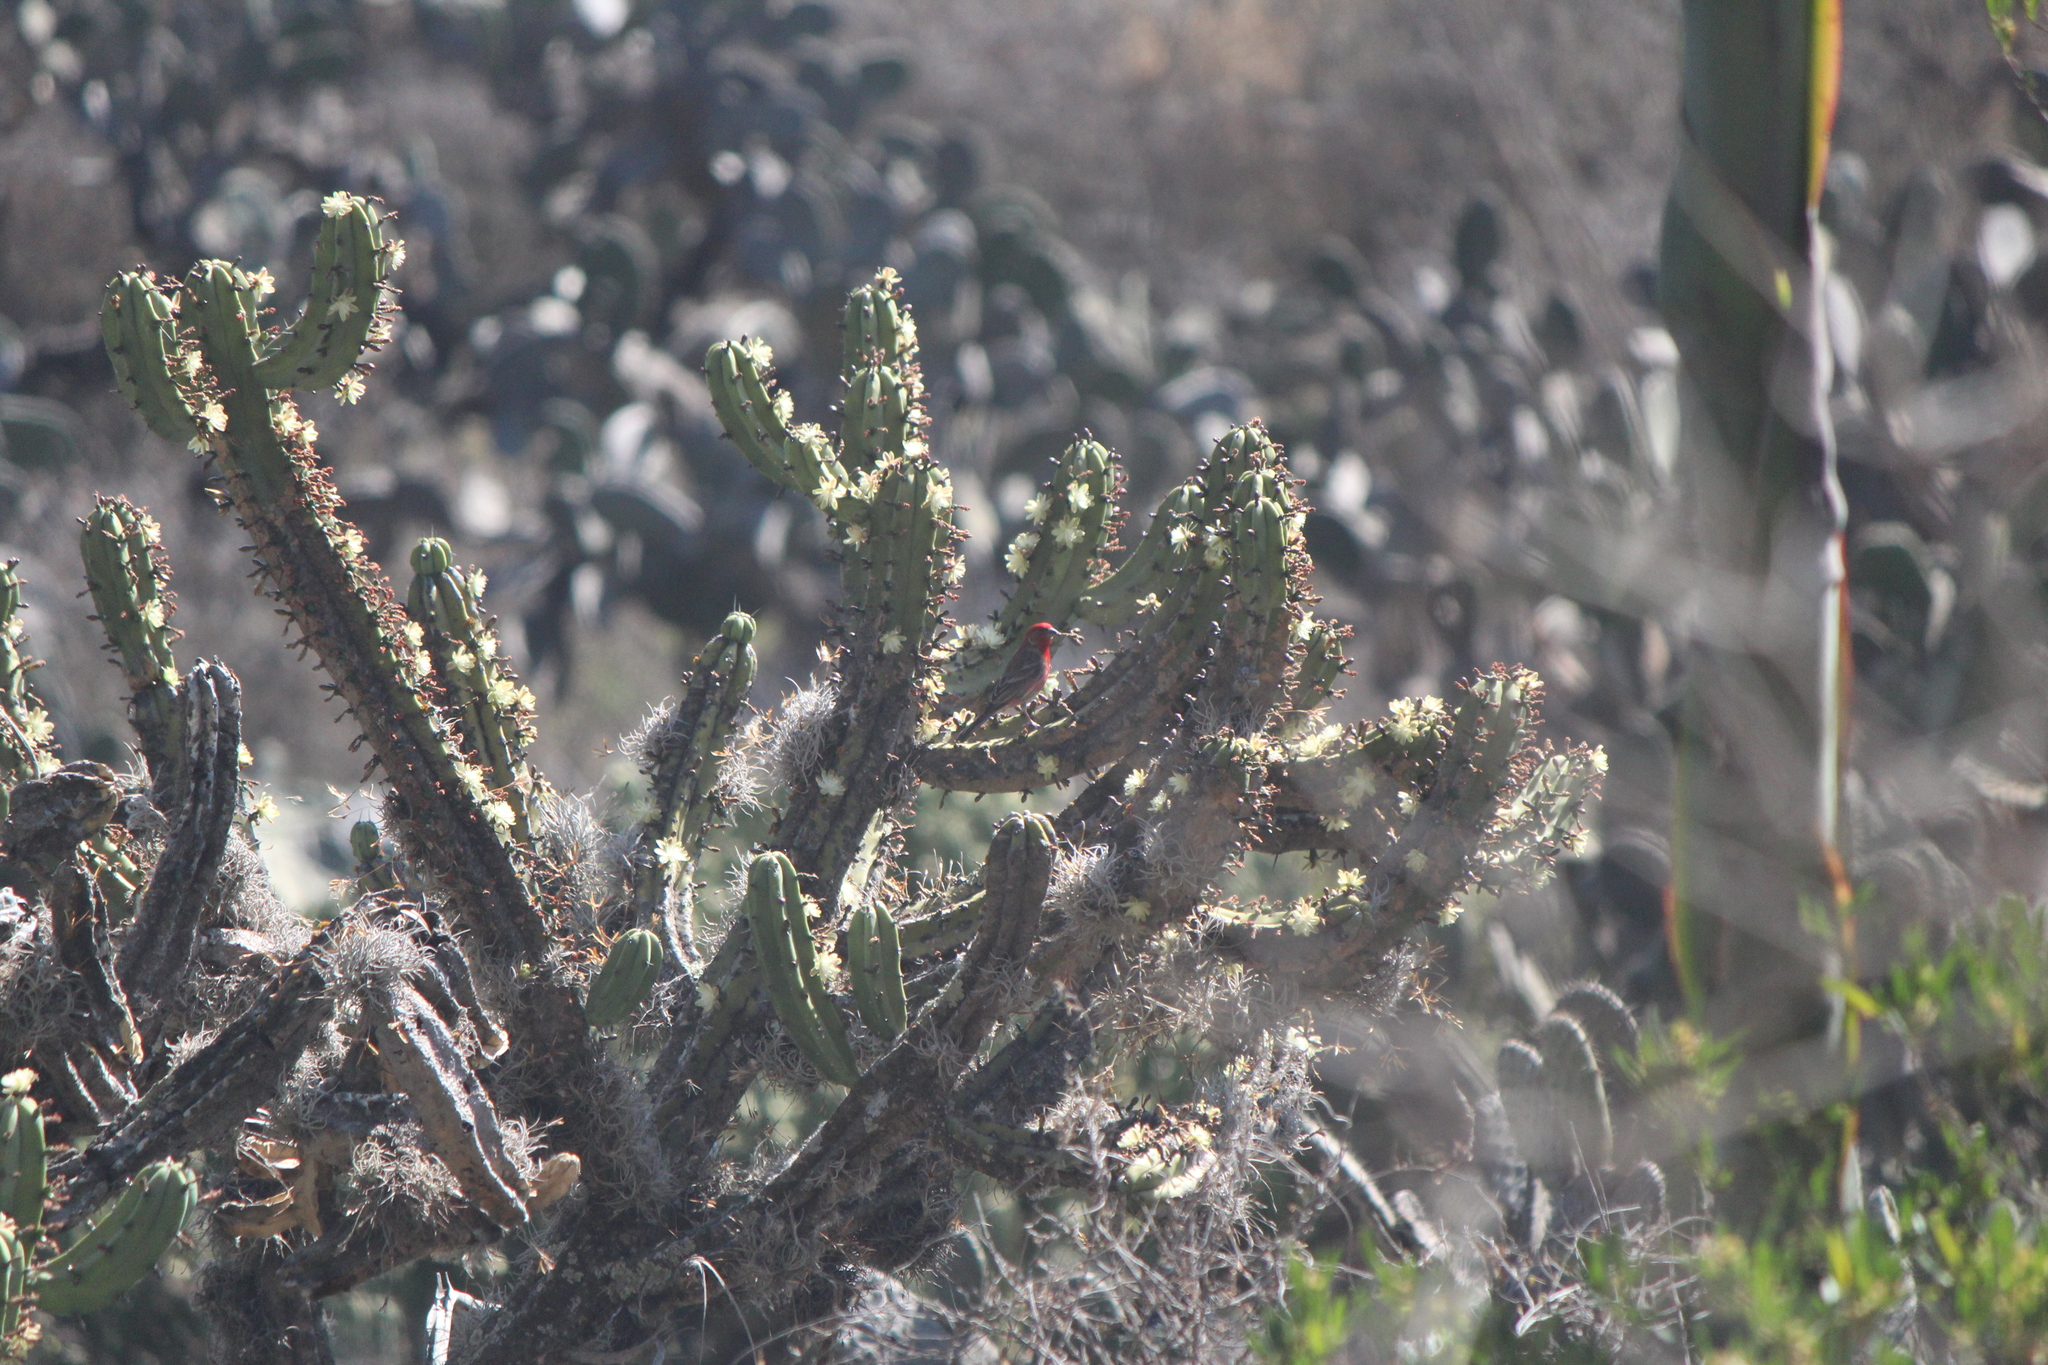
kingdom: Animalia
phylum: Chordata
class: Aves
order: Passeriformes
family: Fringillidae
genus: Haemorhous
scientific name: Haemorhous mexicanus
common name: House finch
